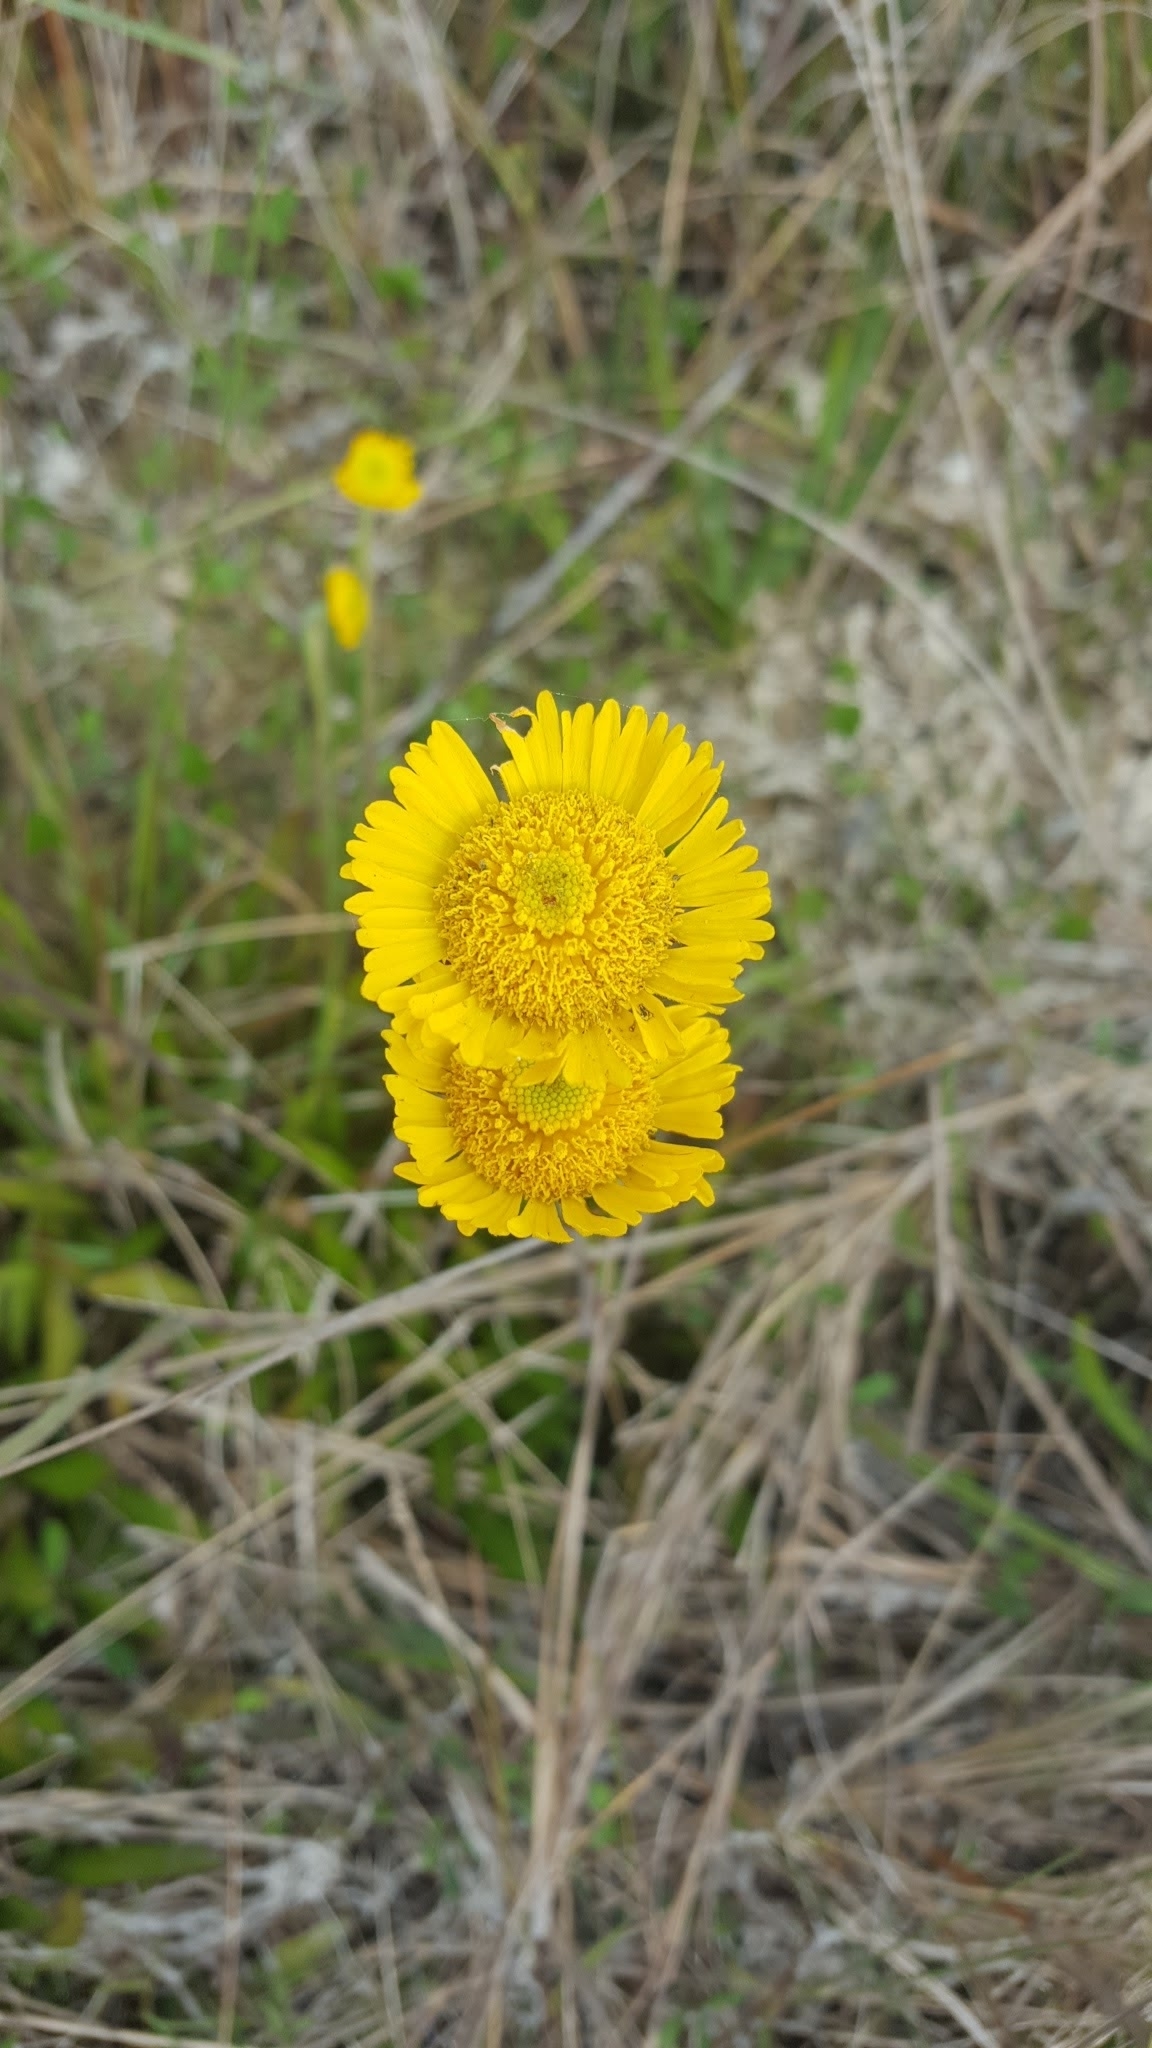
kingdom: Plantae
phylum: Tracheophyta
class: Magnoliopsida
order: Asterales
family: Asteraceae
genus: Helenium
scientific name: Helenium pinnatifidum
